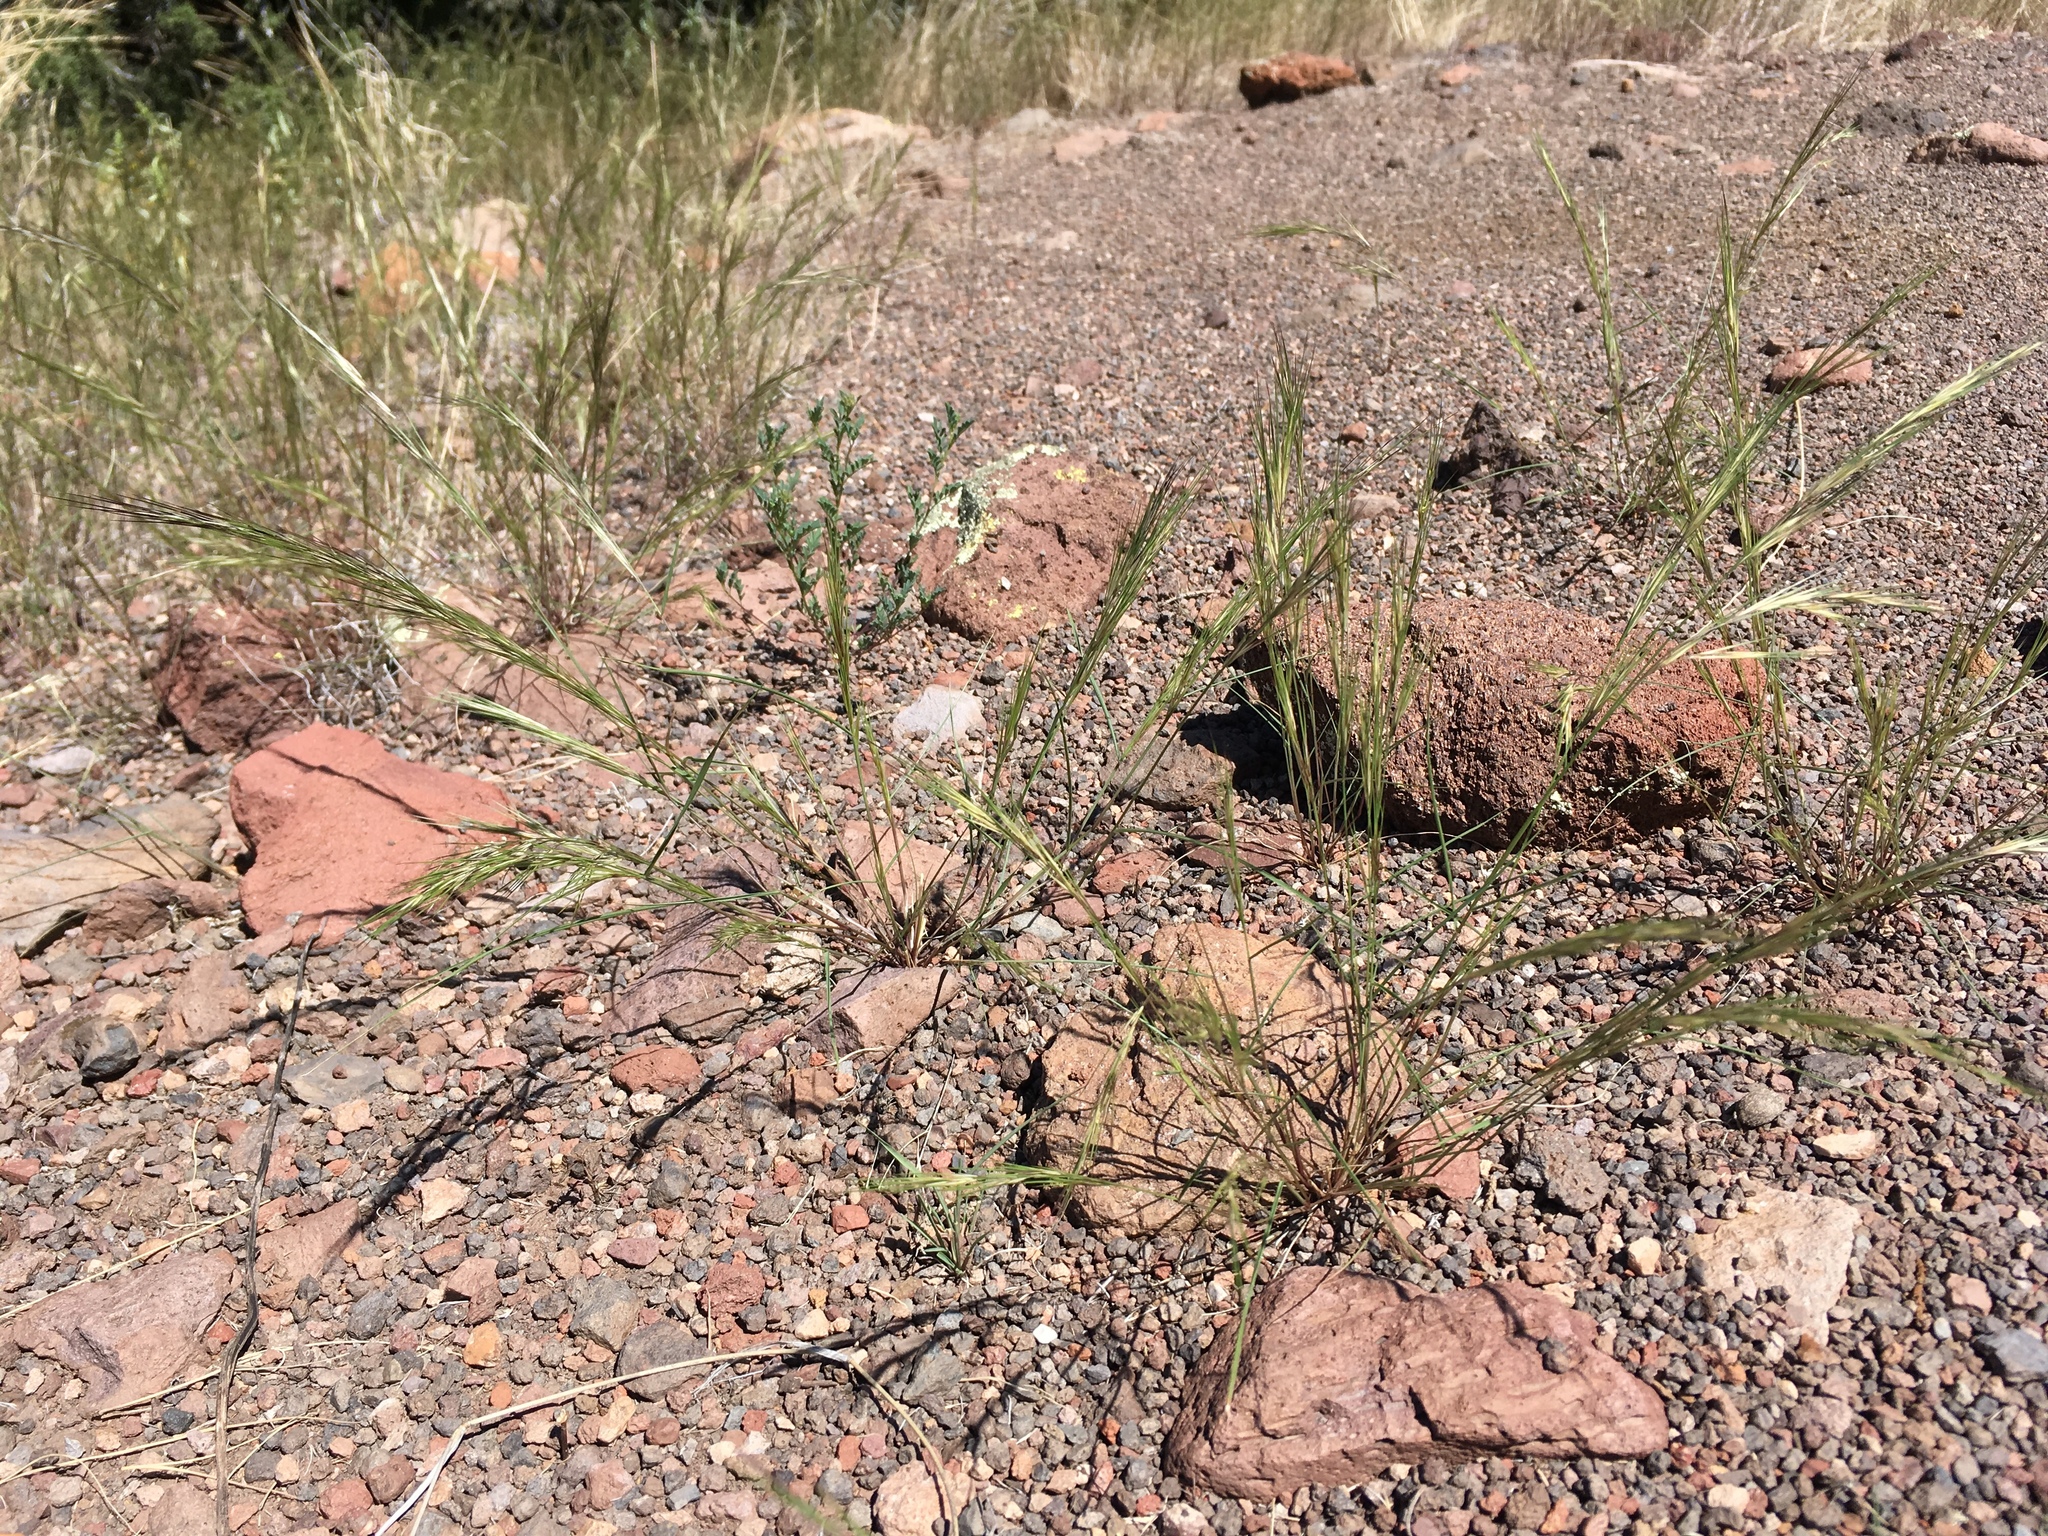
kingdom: Plantae
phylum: Tracheophyta
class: Liliopsida
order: Poales
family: Poaceae
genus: Aristida
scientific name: Aristida adscensionis
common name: Sixweeks threeawn
